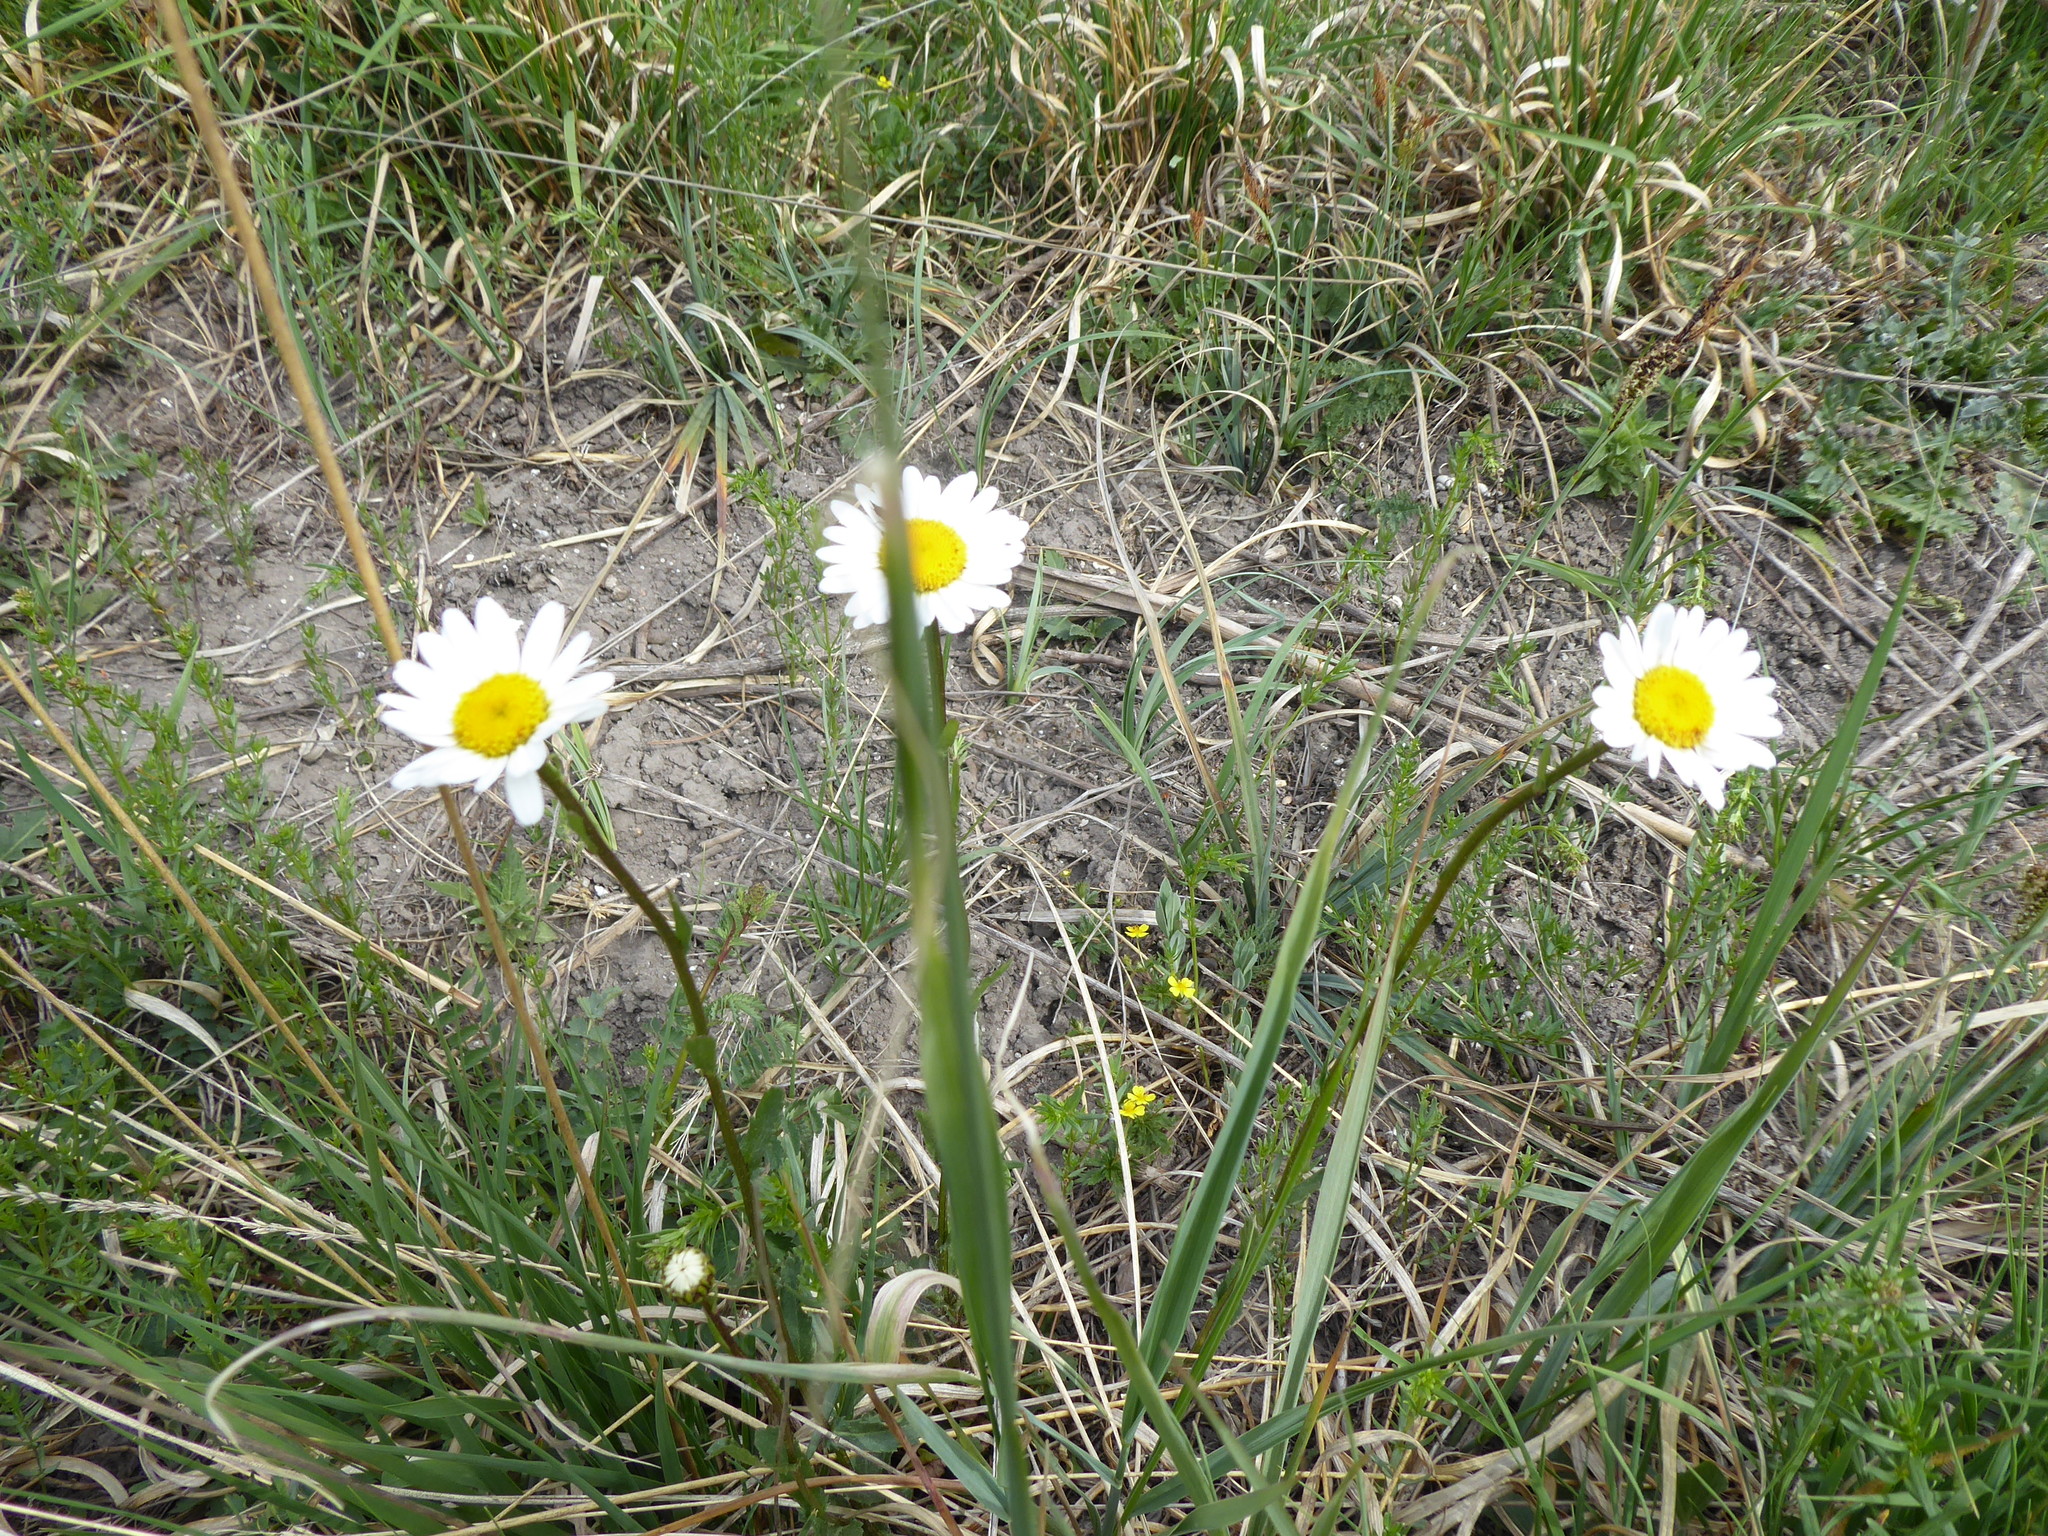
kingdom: Plantae
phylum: Tracheophyta
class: Magnoliopsida
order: Asterales
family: Asteraceae
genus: Leucanthemum
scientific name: Leucanthemum vulgare
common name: Oxeye daisy
